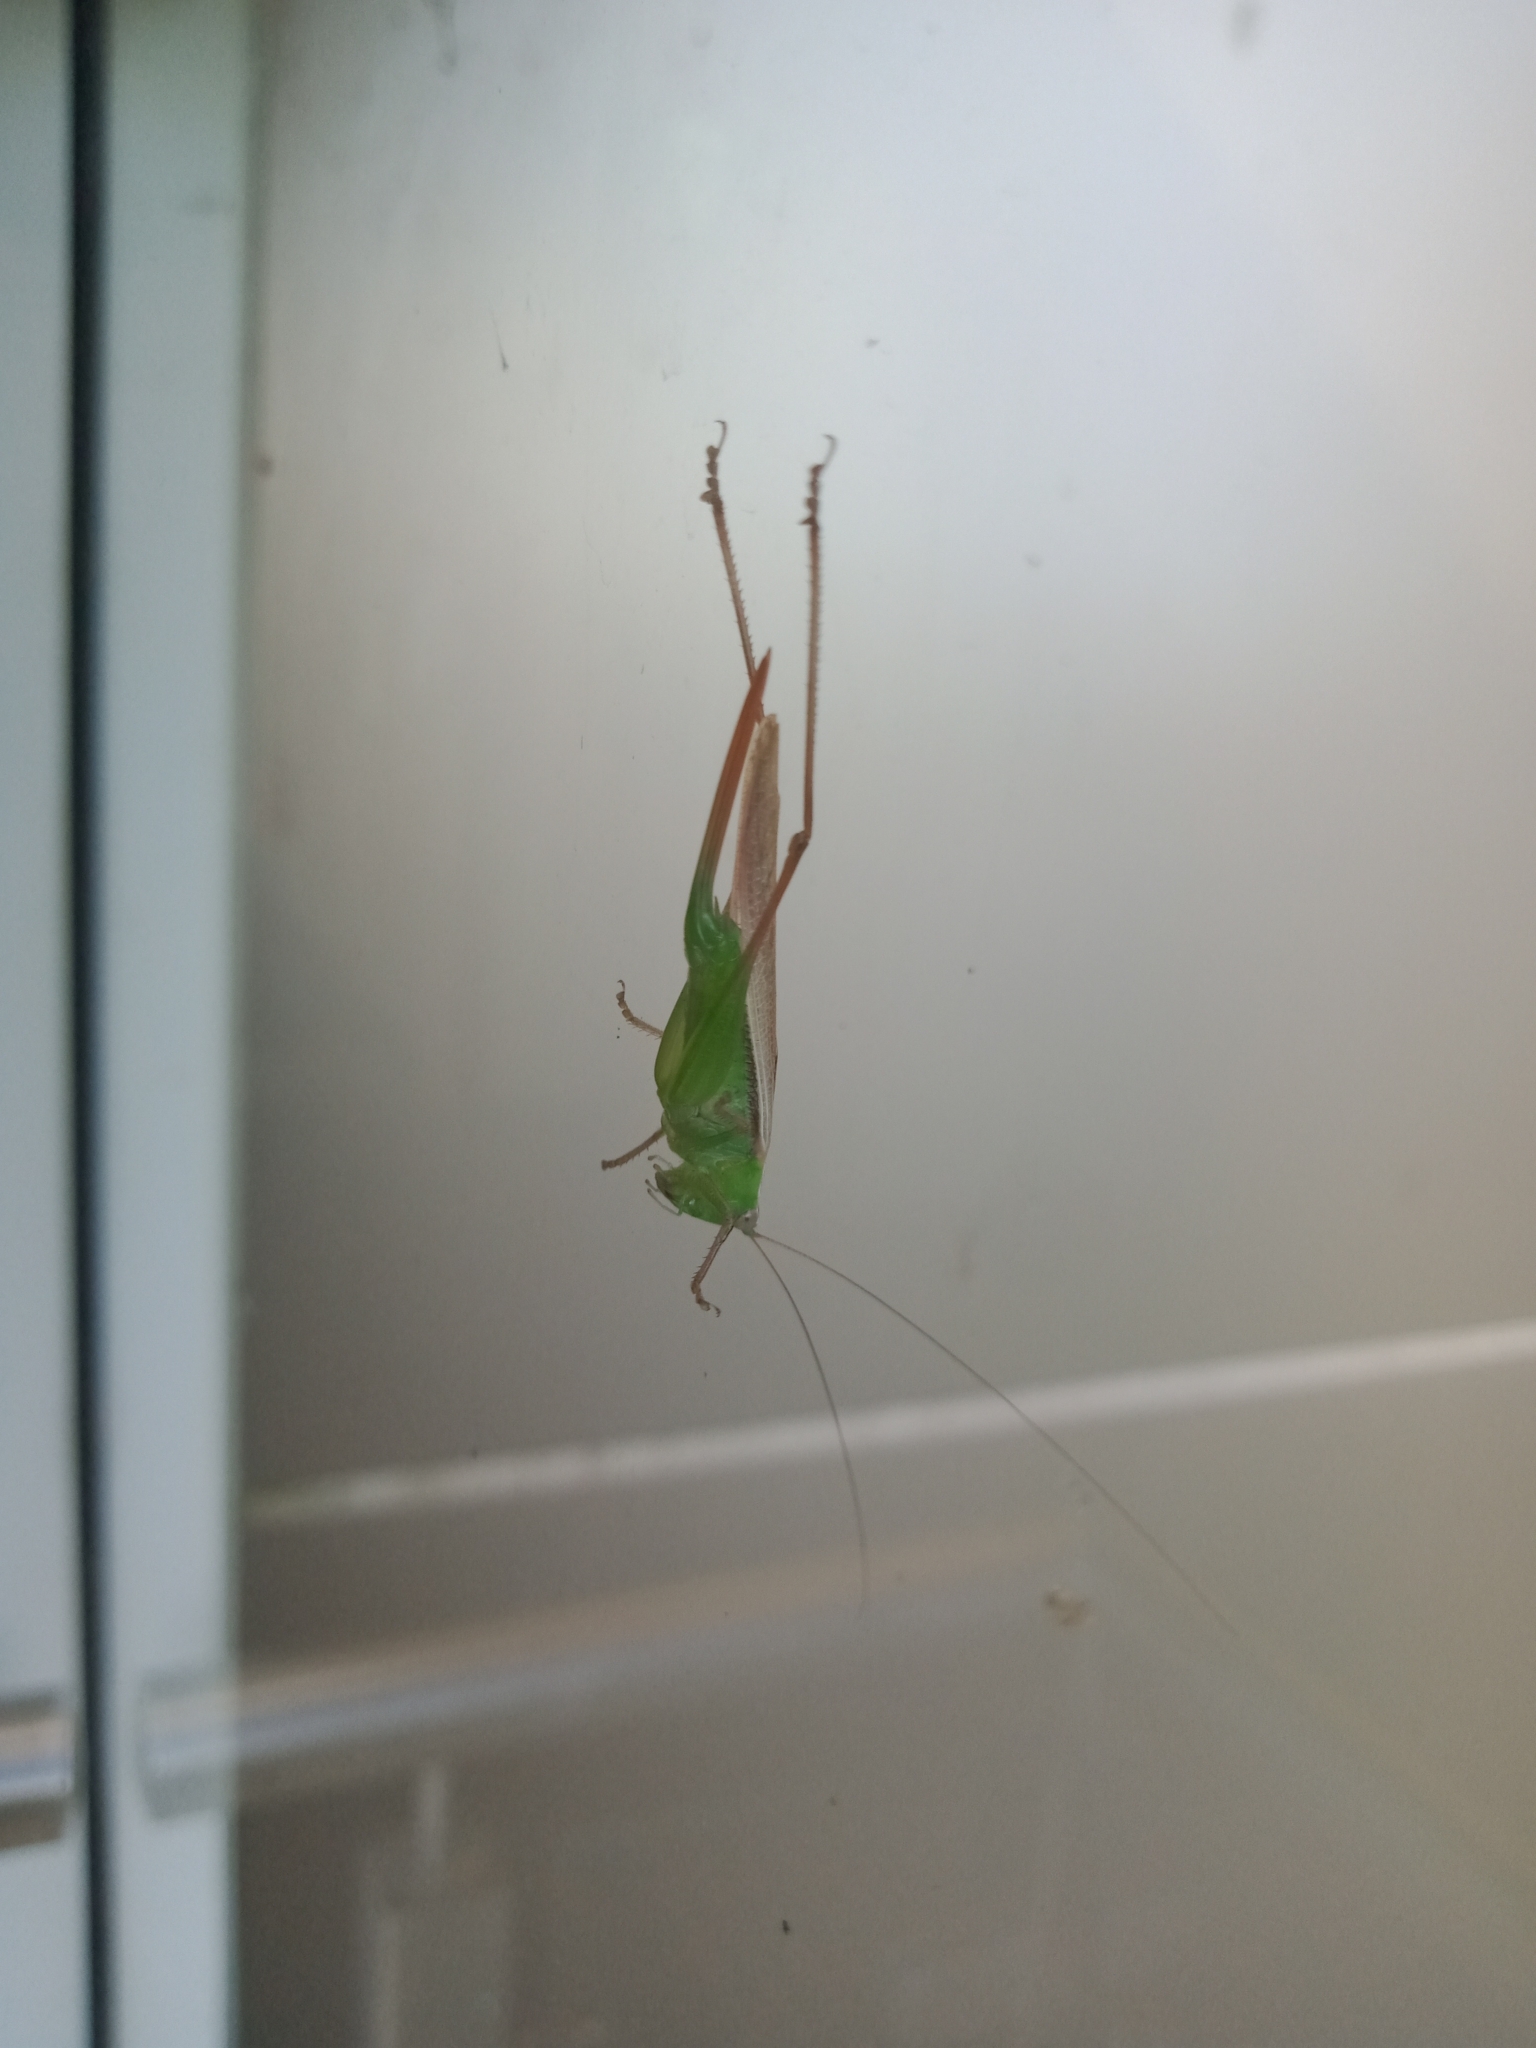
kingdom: Animalia
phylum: Arthropoda
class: Insecta
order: Orthoptera
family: Tettigoniidae
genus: Conocephalus
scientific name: Conocephalus albescens
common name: Whitish meadow katydid
